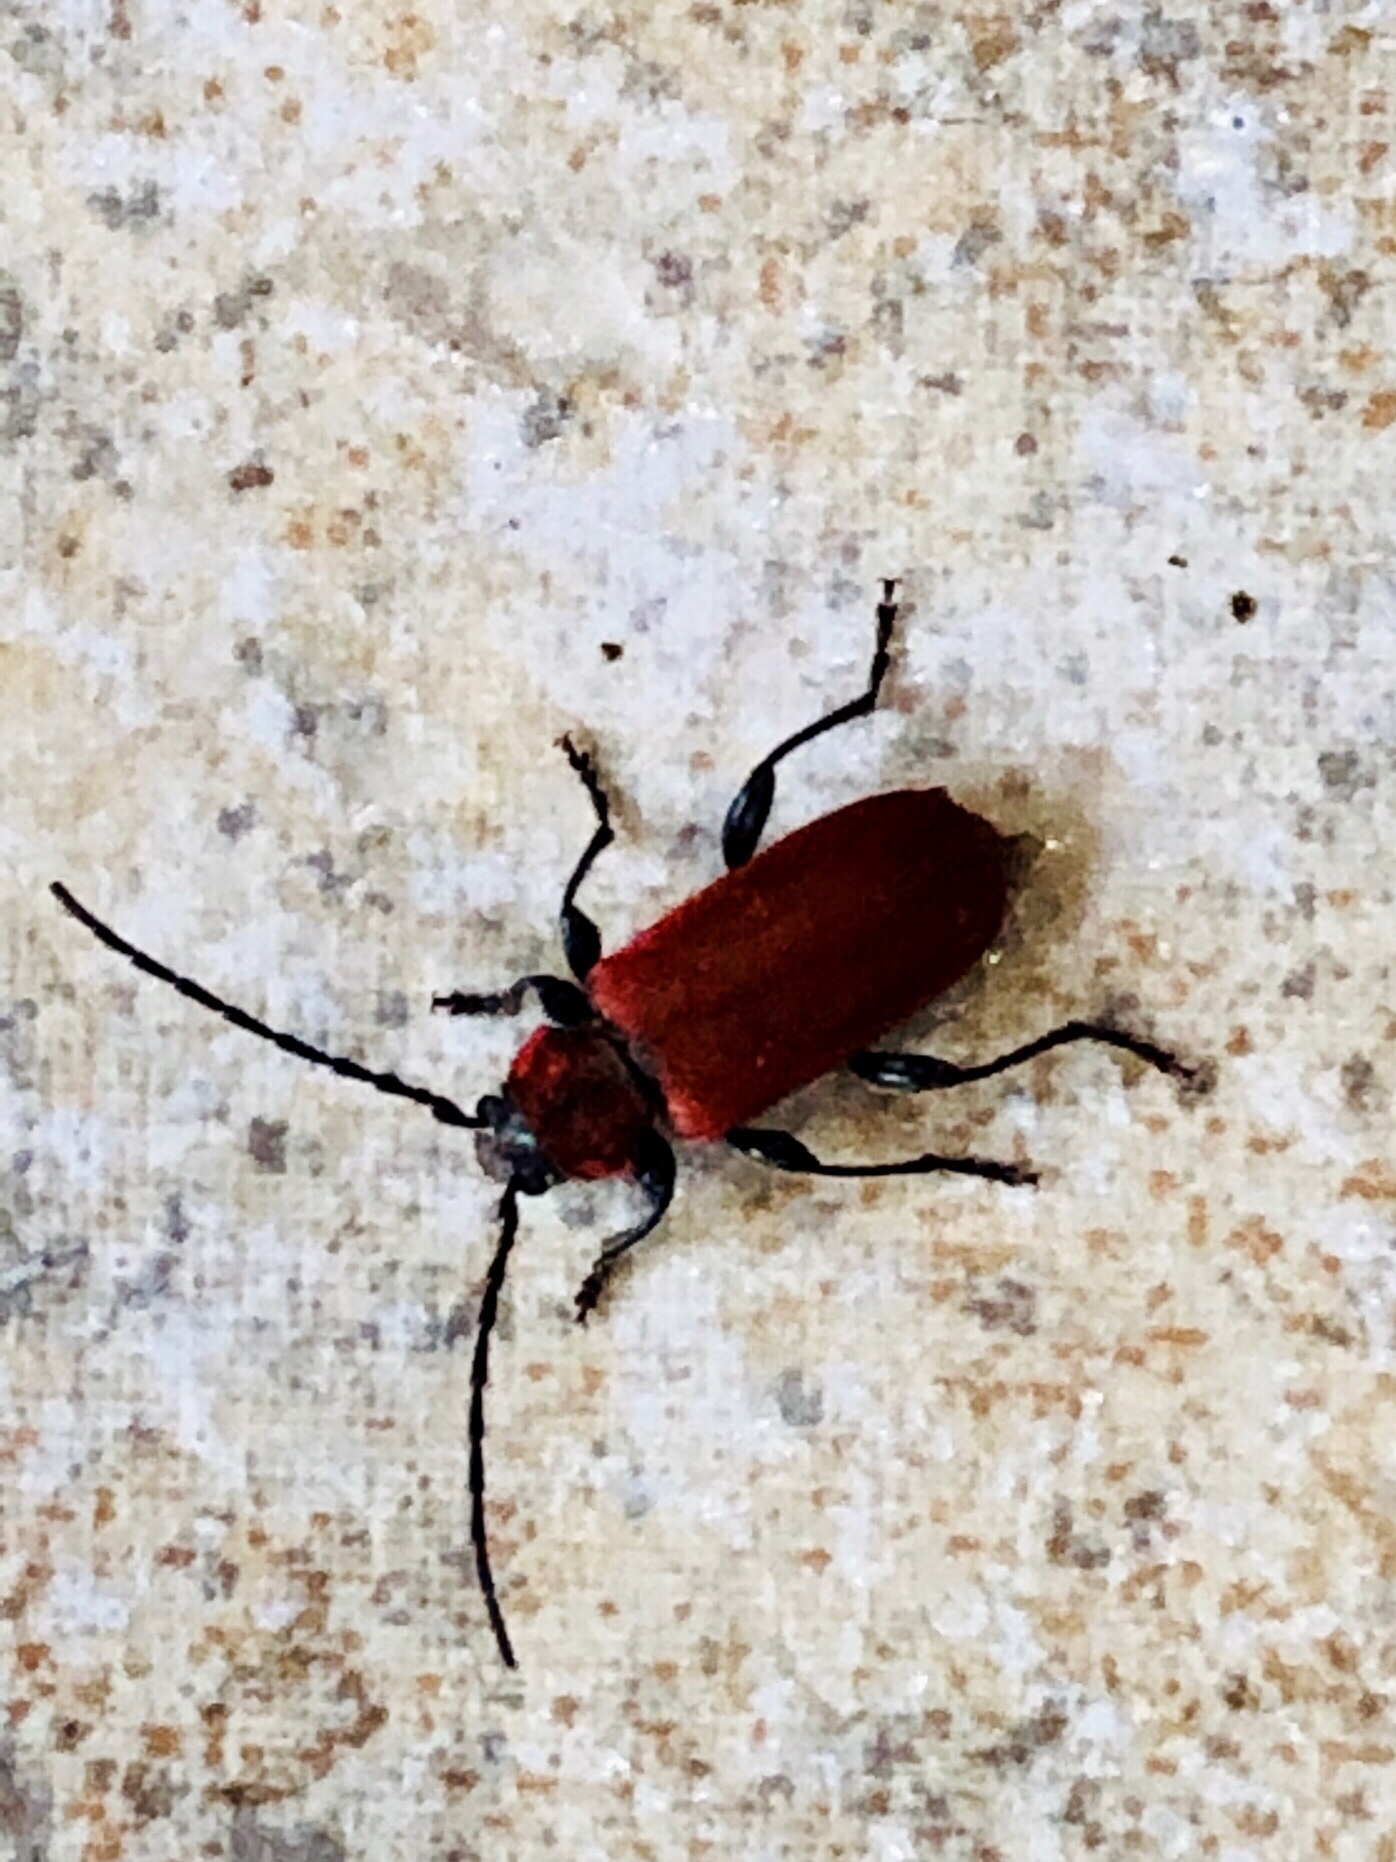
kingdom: Animalia
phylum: Arthropoda
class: Insecta
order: Coleoptera
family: Cerambycidae
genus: Pyrrhidium
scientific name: Pyrrhidium sanguineum
